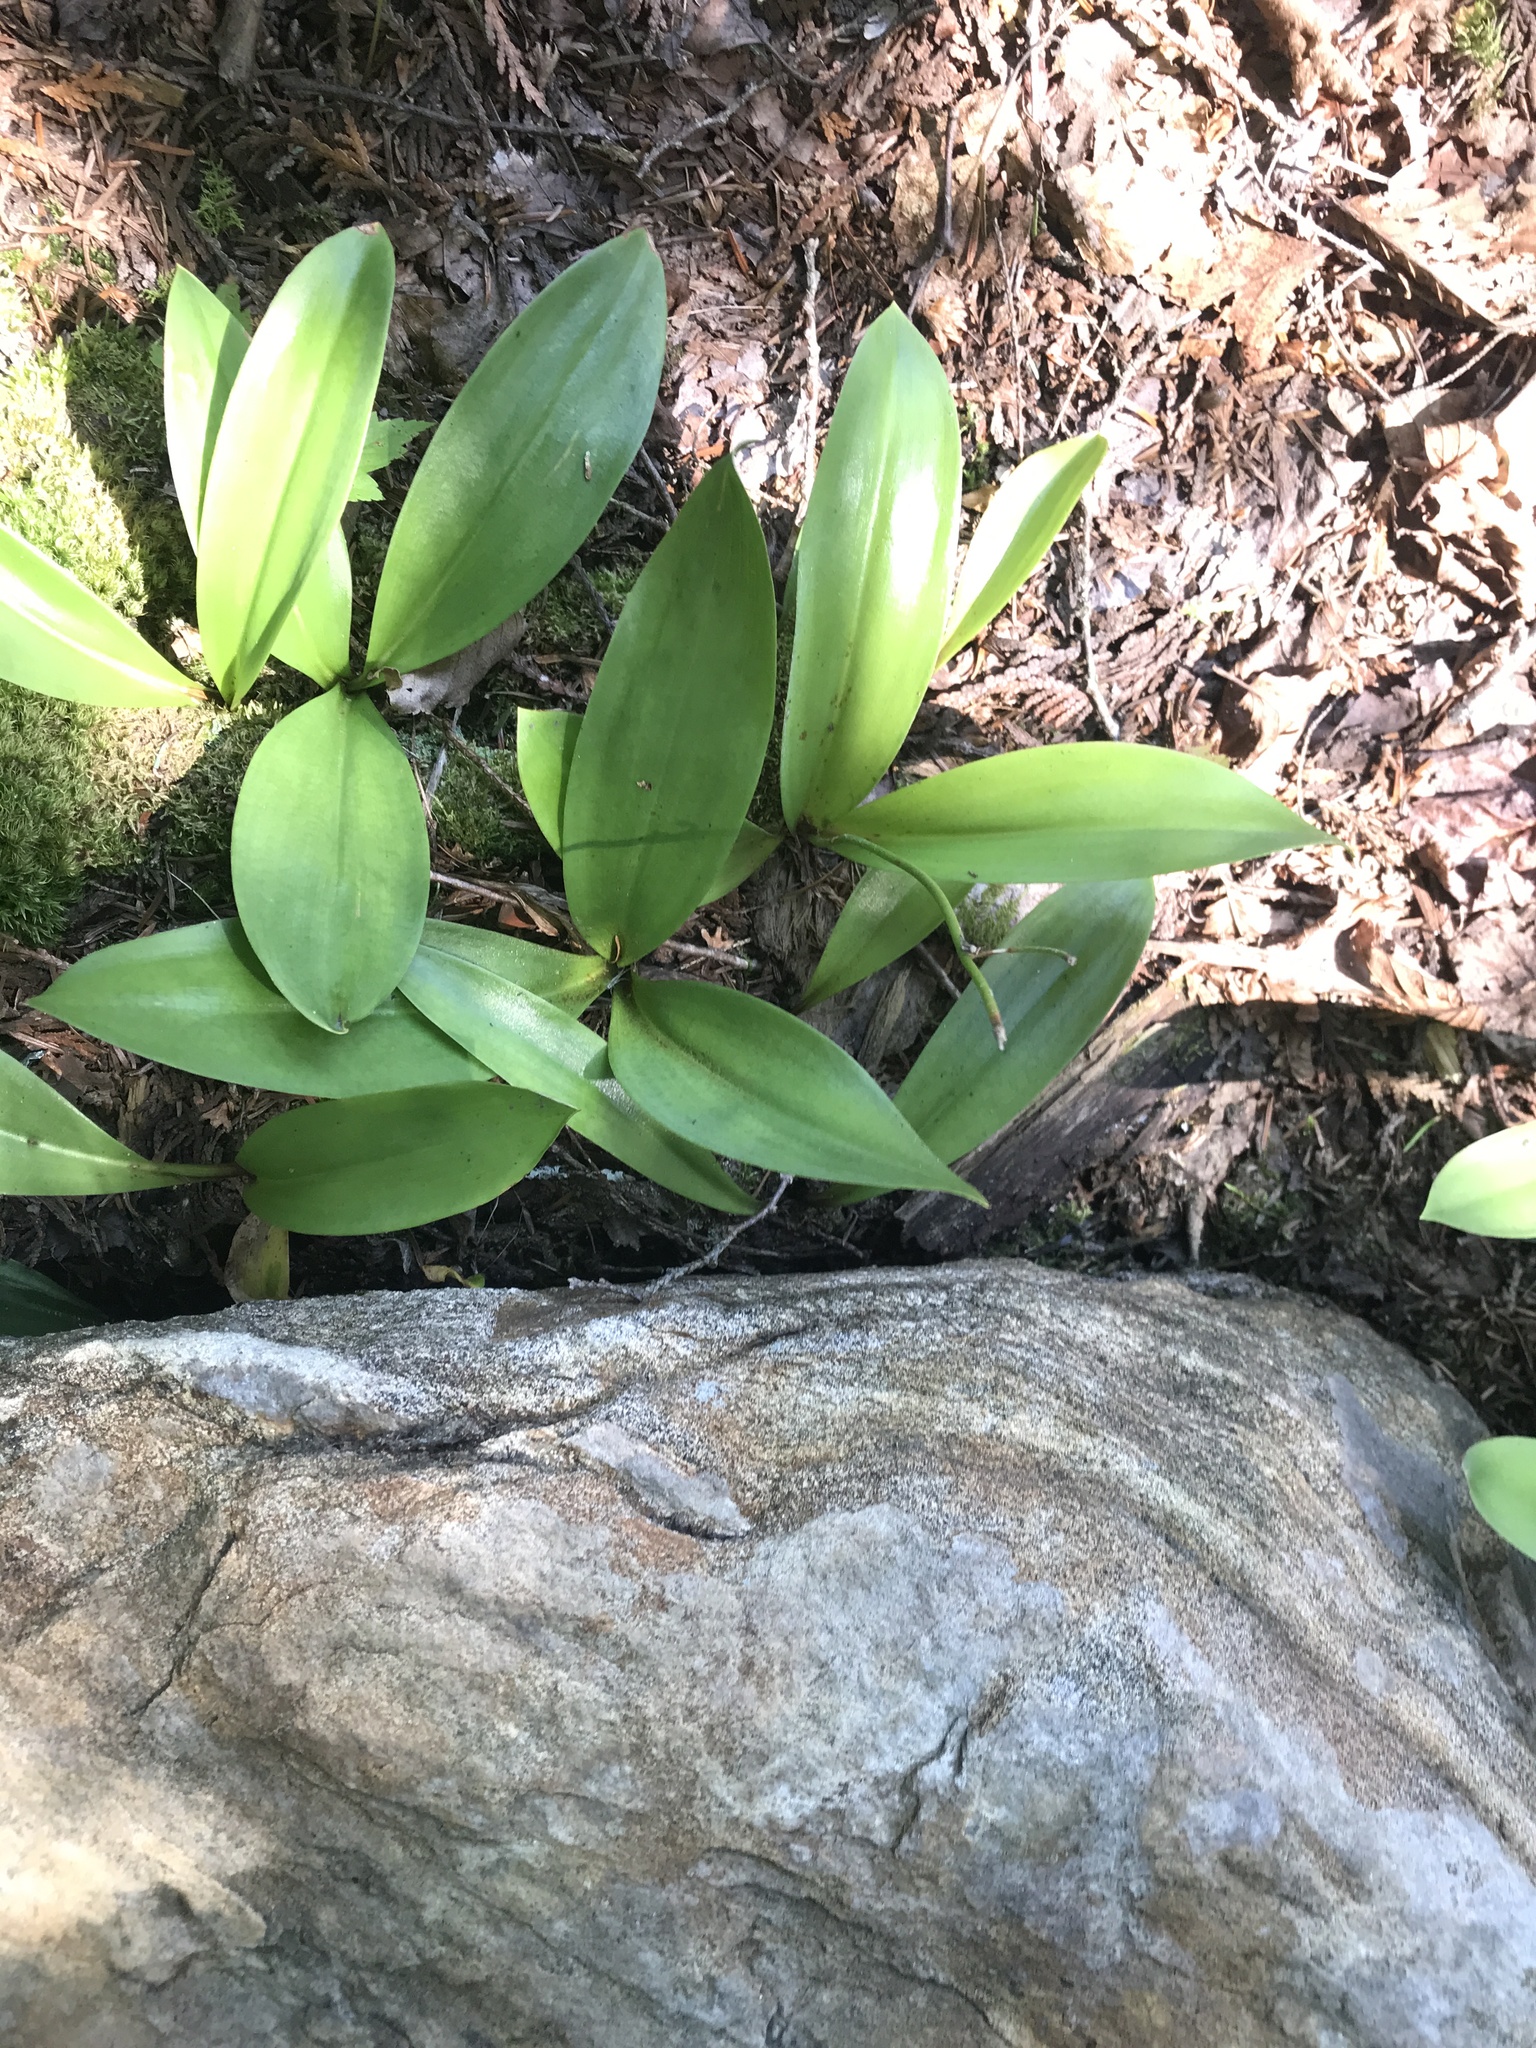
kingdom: Plantae
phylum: Tracheophyta
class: Liliopsida
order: Liliales
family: Liliaceae
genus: Clintonia
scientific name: Clintonia borealis
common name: Yellow clintonia
